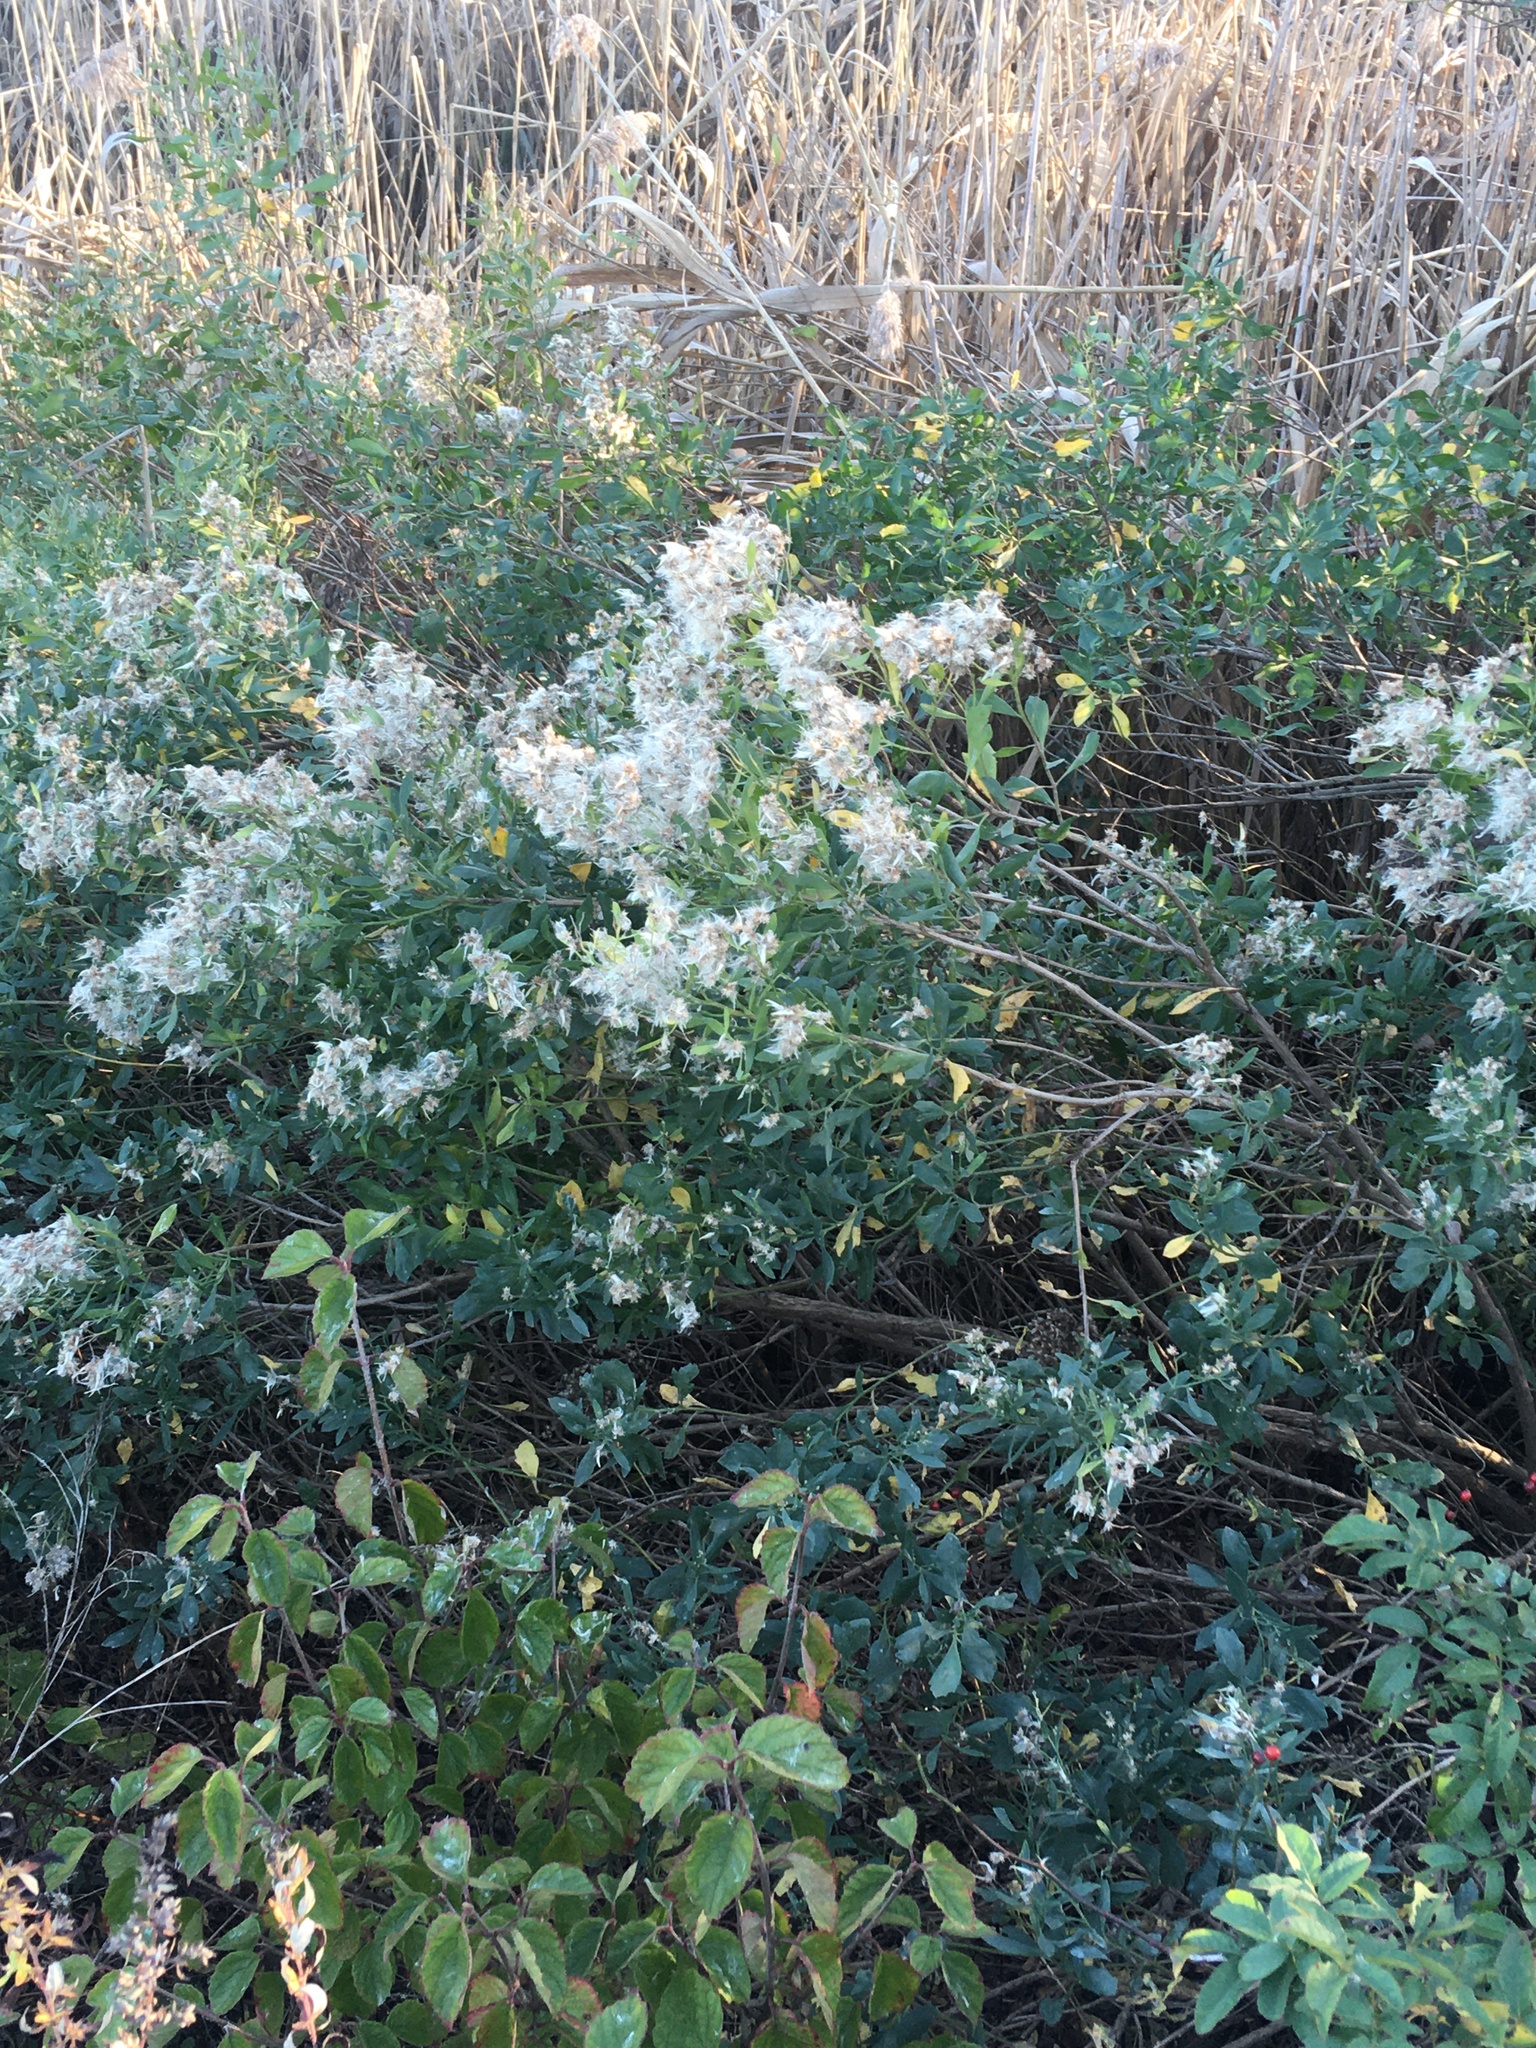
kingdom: Plantae
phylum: Tracheophyta
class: Magnoliopsida
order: Asterales
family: Asteraceae
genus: Baccharis
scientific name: Baccharis halimifolia
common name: Eastern baccharis
